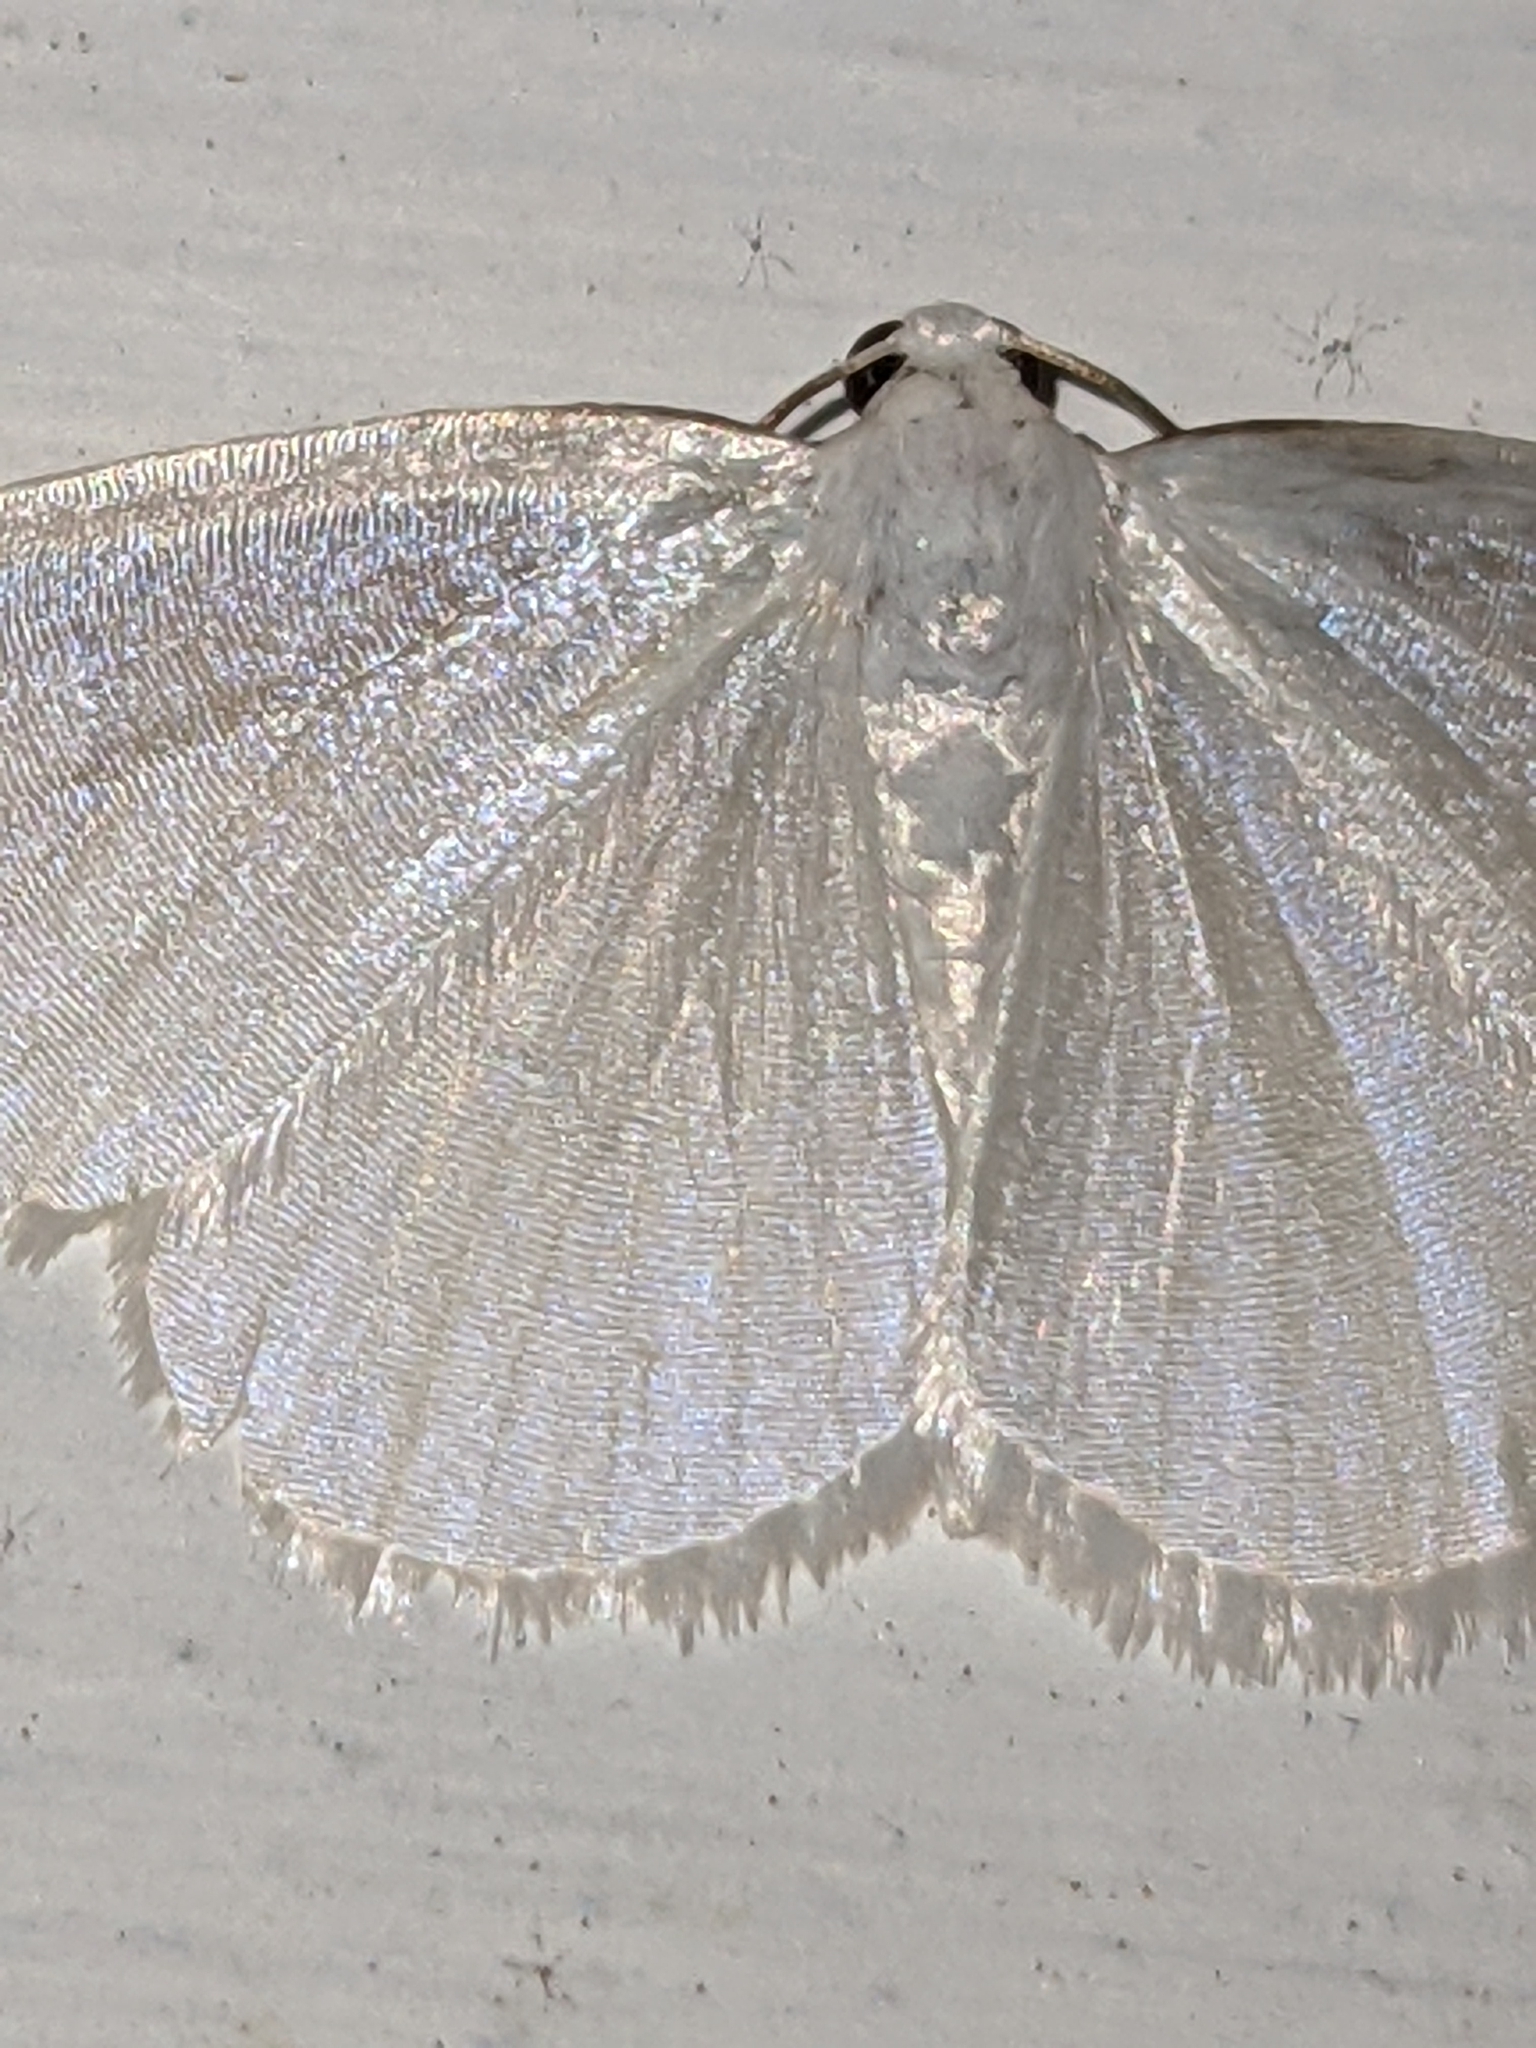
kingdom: Animalia
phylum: Arthropoda
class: Insecta
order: Lepidoptera
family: Geometridae
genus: Lomographa
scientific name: Lomographa vestaliata
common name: White spring moth
